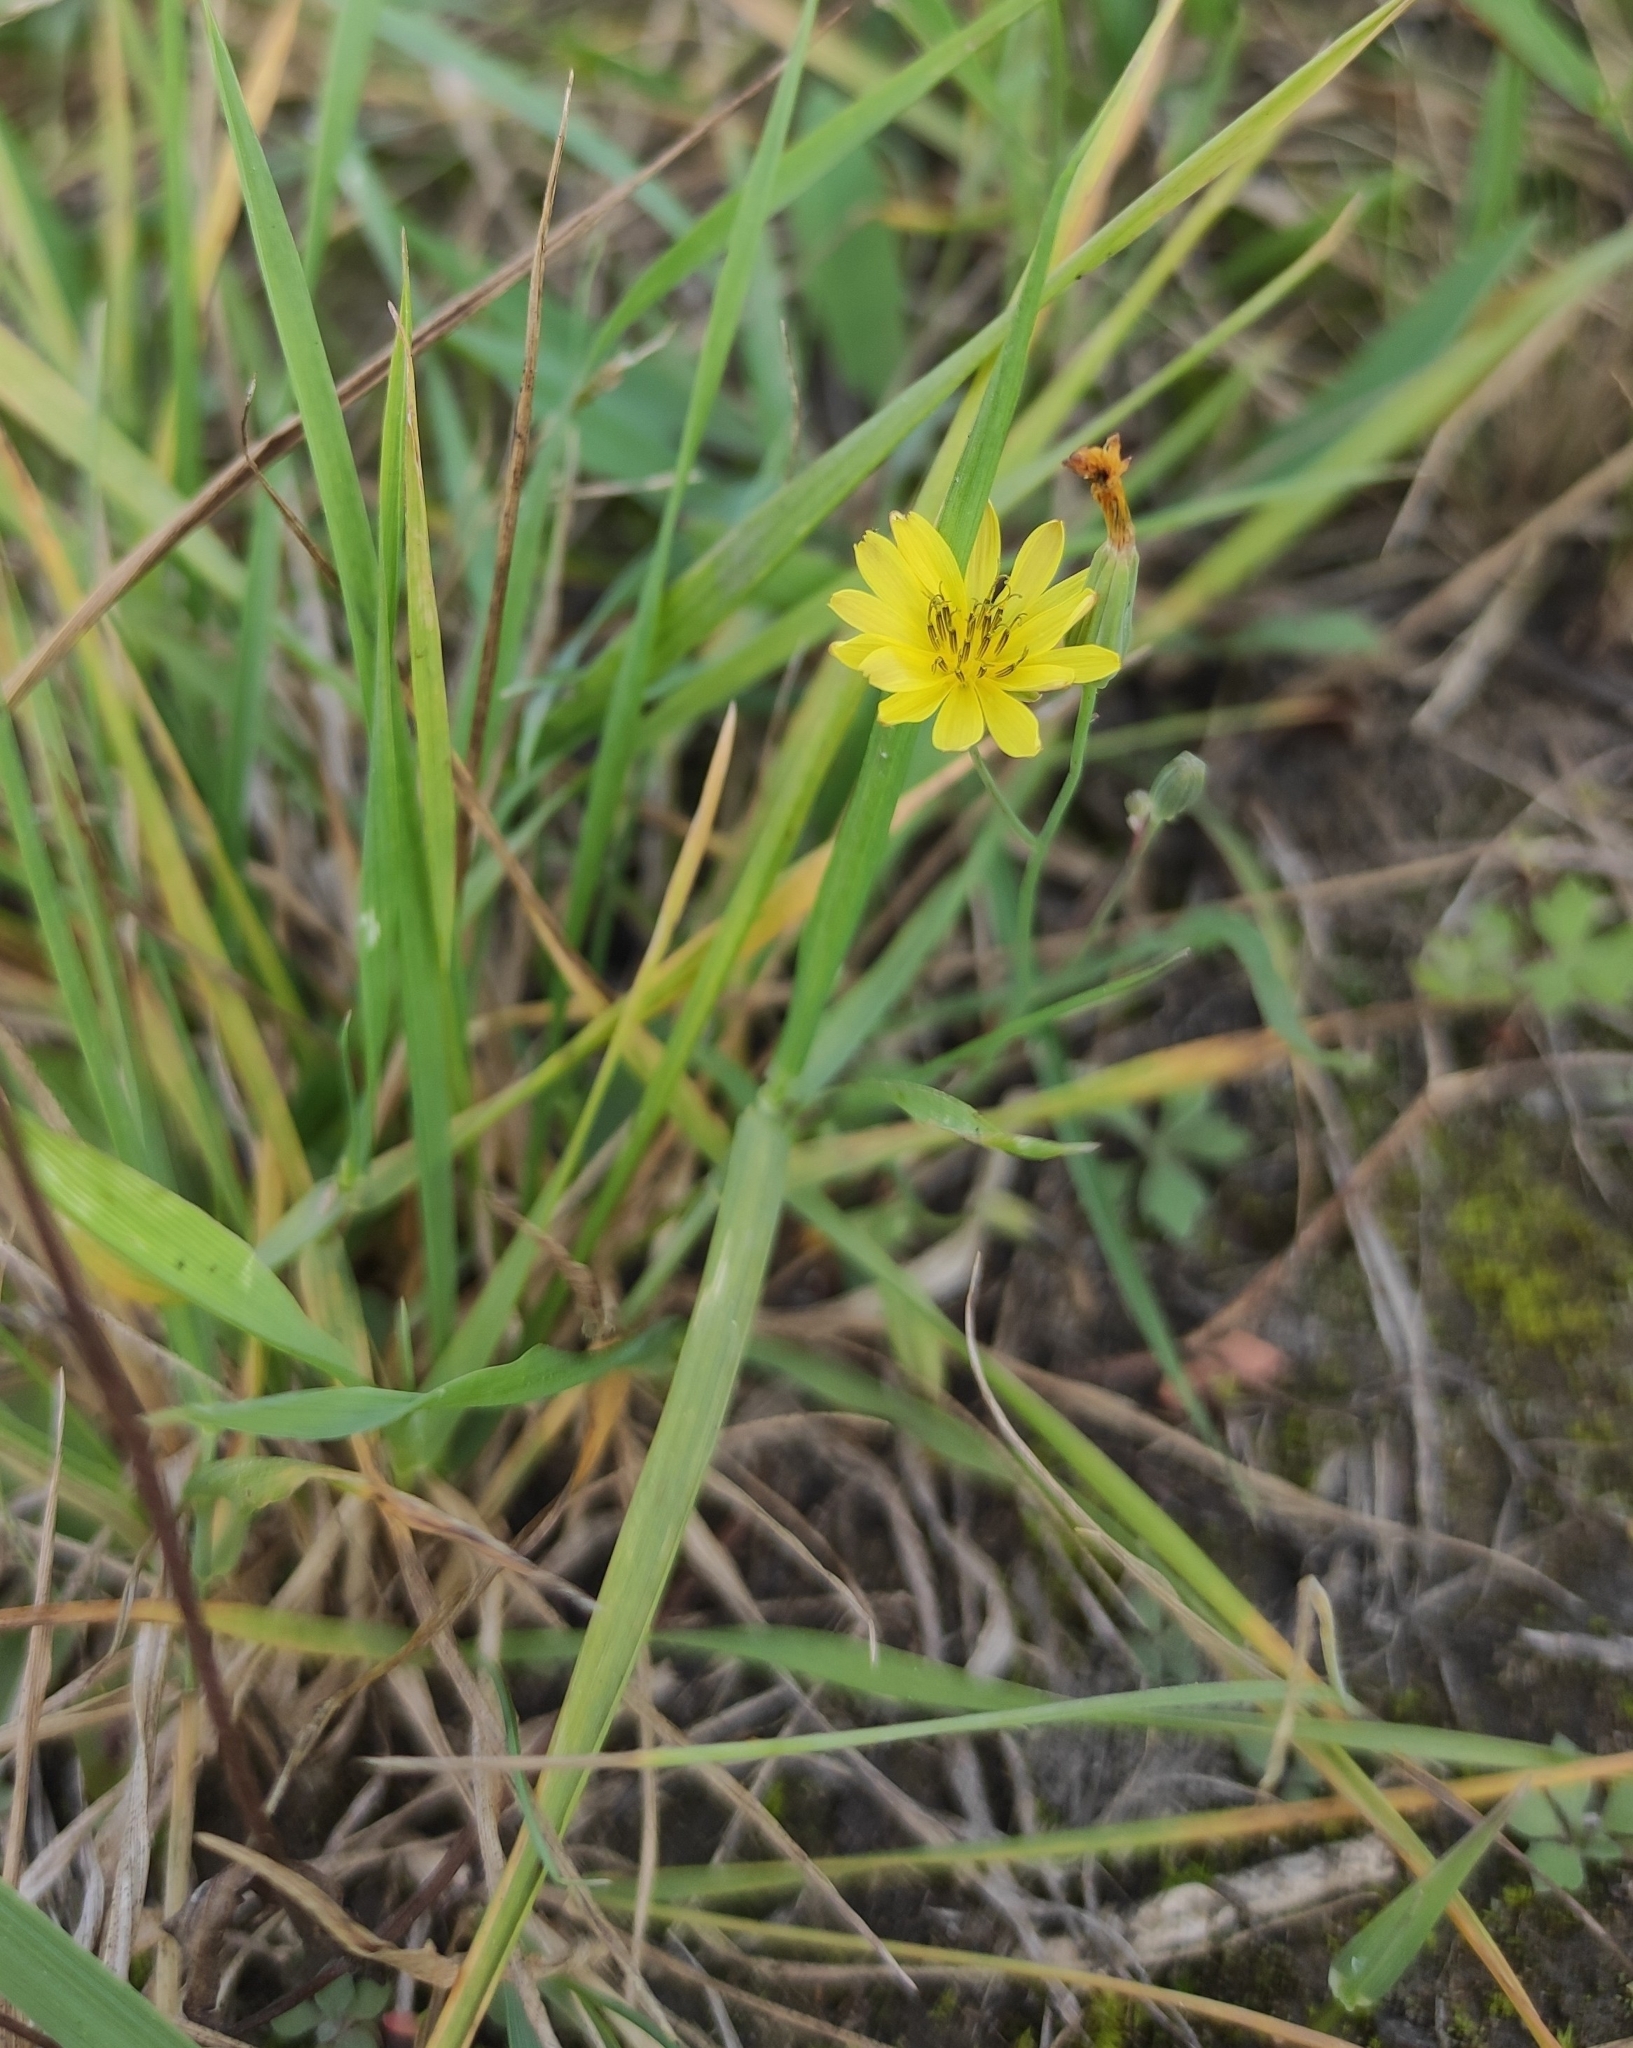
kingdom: Plantae
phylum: Tracheophyta
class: Magnoliopsida
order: Asterales
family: Asteraceae
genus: Ixeris
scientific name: Ixeris chinensis
